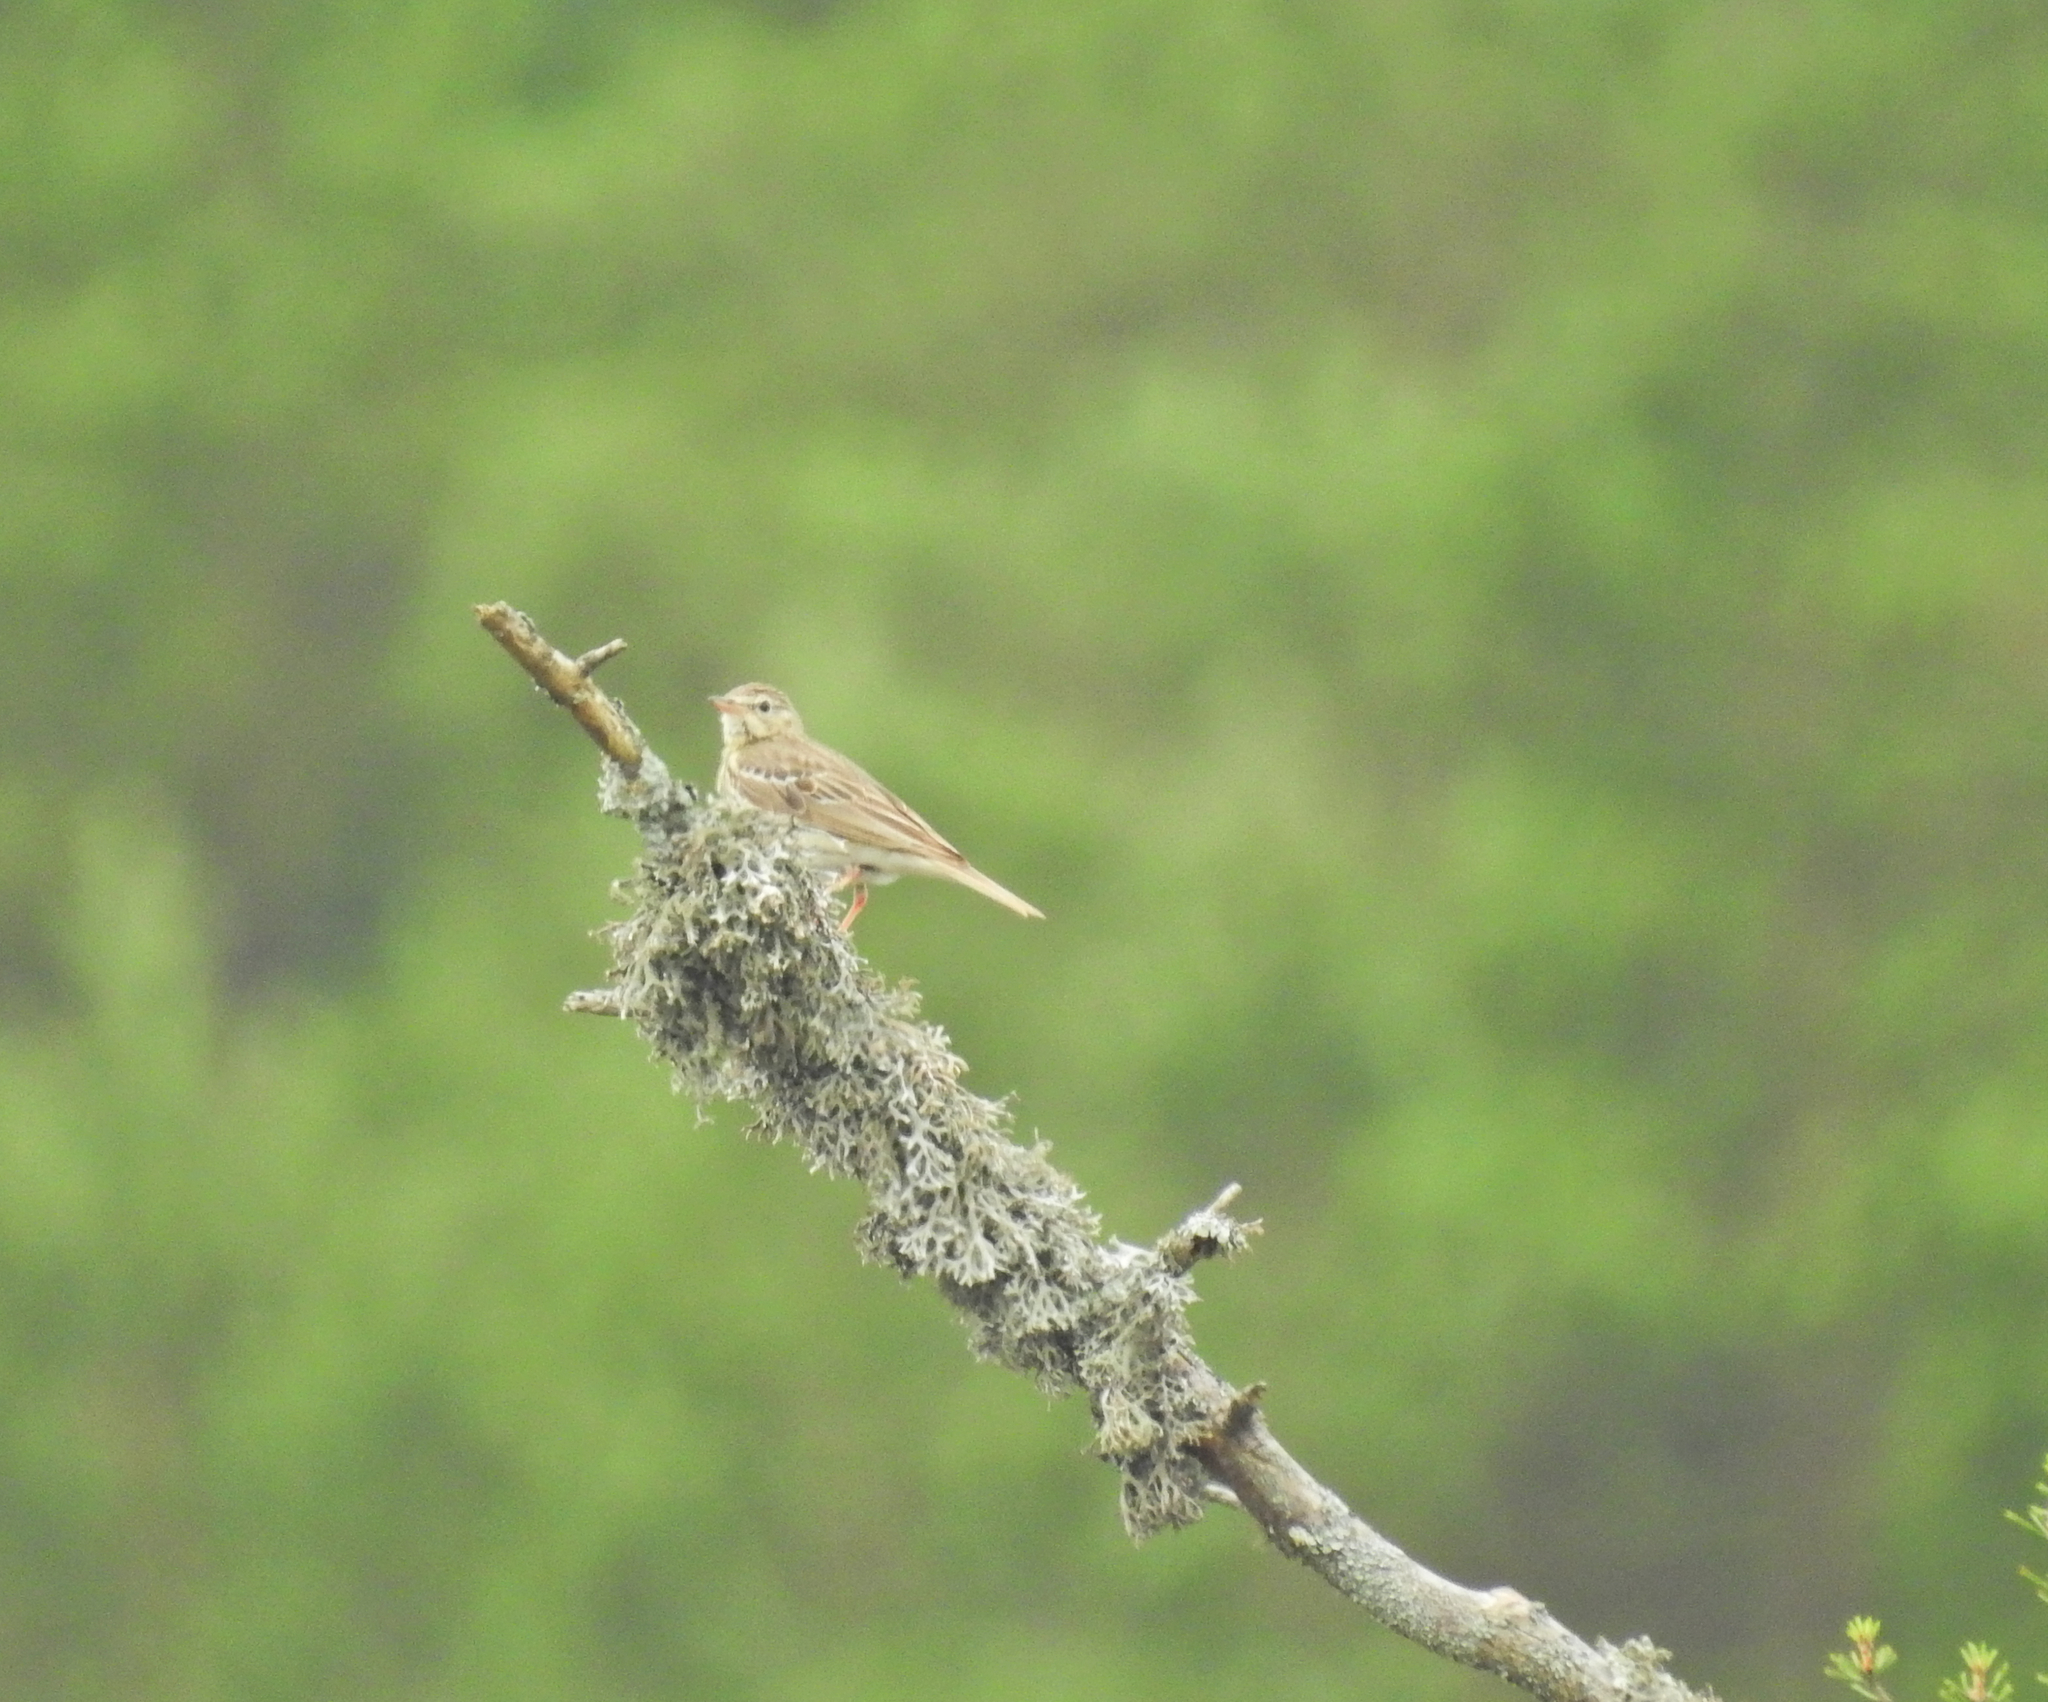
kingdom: Animalia
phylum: Chordata
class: Aves
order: Passeriformes
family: Motacillidae
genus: Anthus
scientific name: Anthus trivialis
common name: Tree pipit
